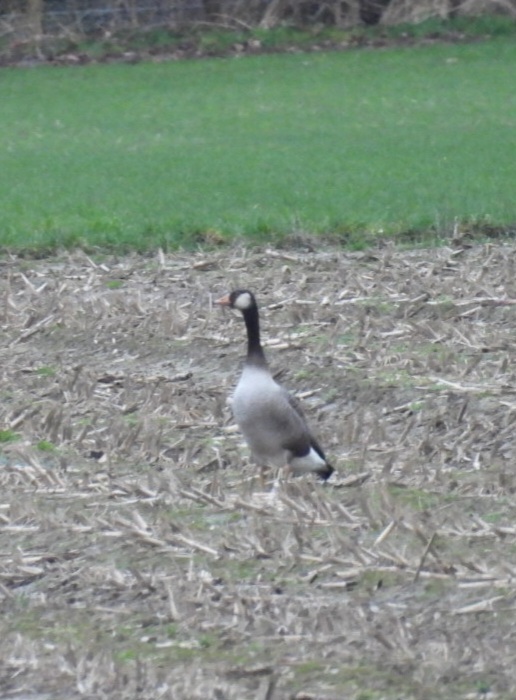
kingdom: Animalia
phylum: Chordata
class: Aves
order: Anseriformes
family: Anatidae
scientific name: Anatidae
